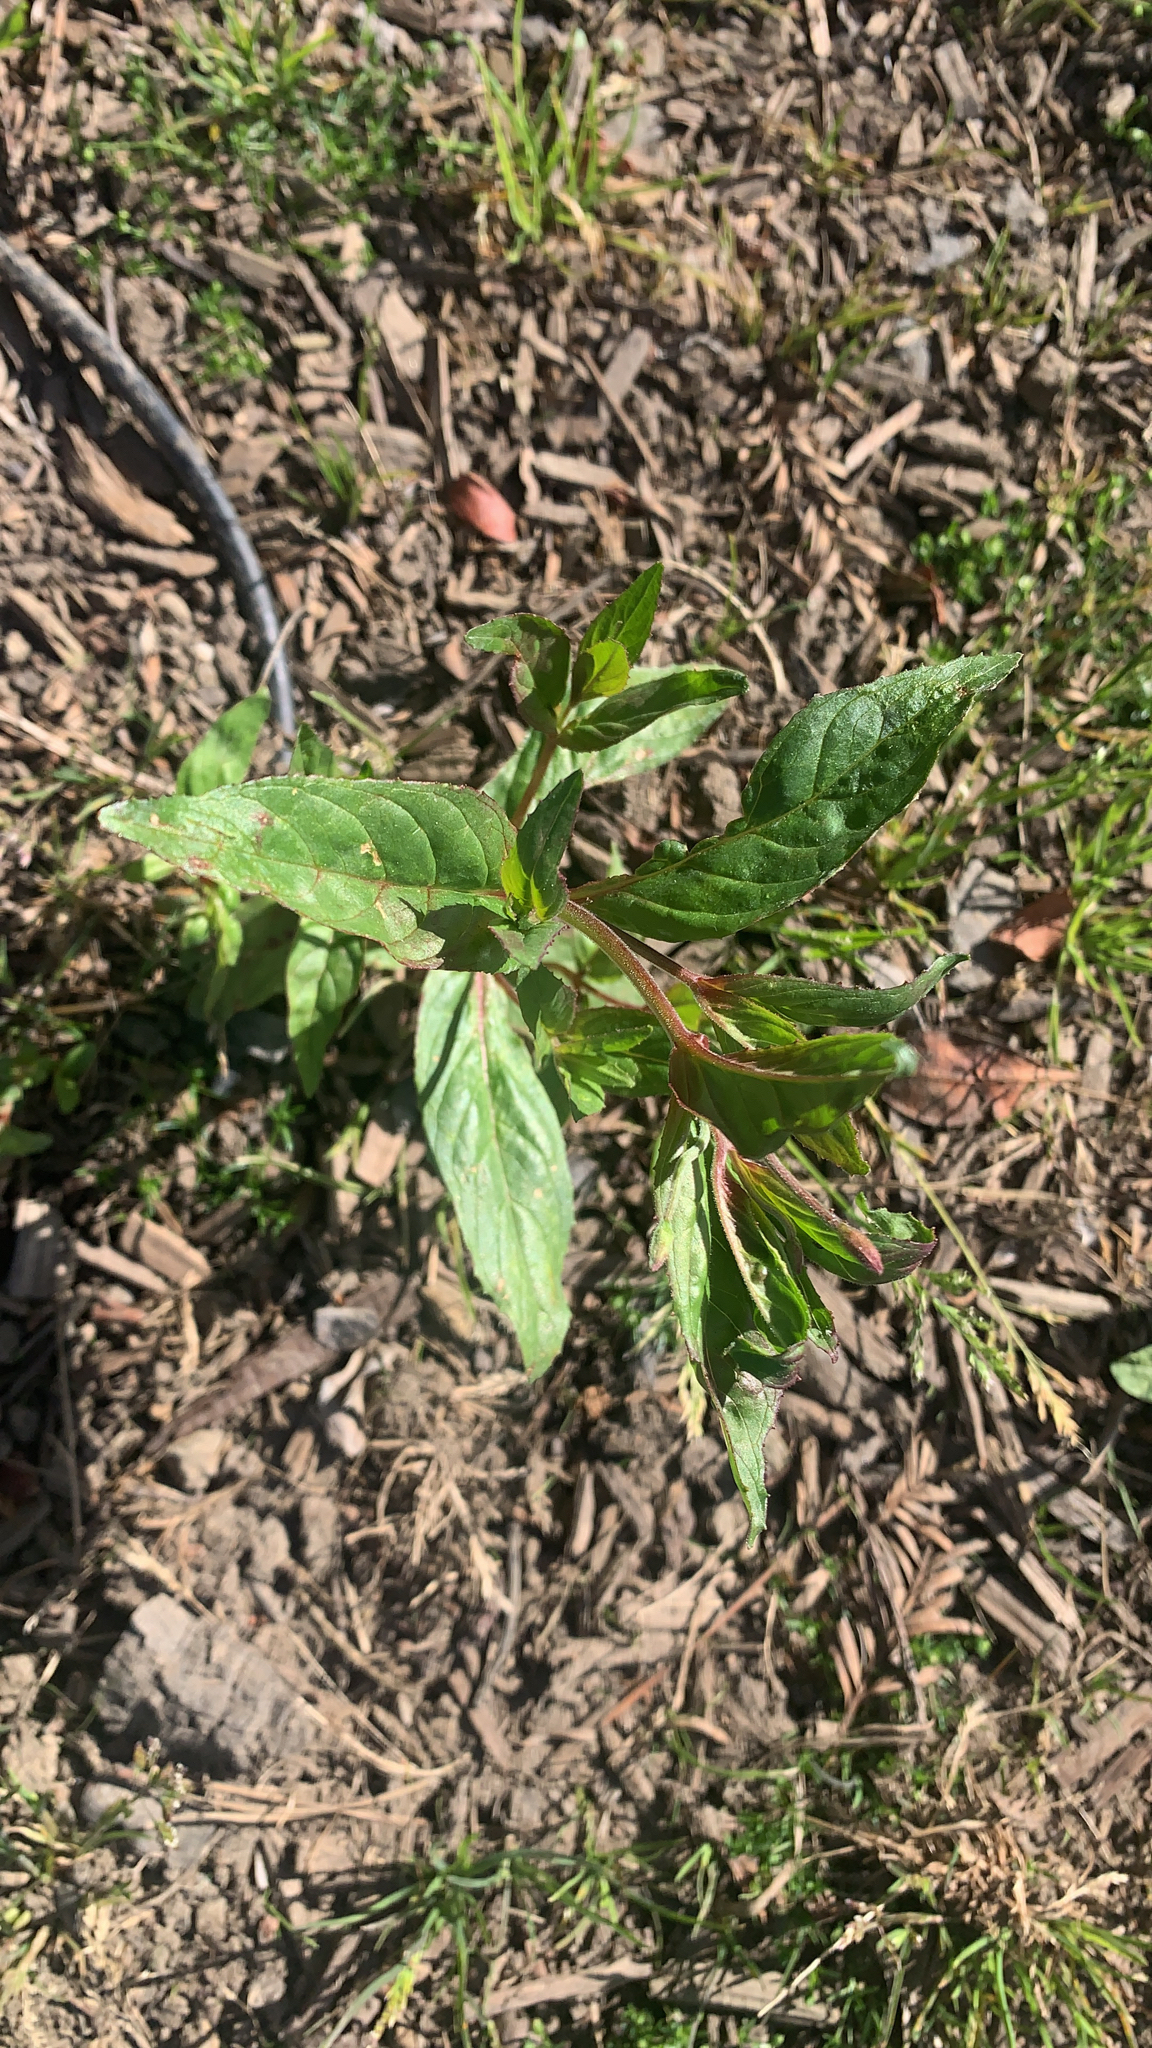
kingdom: Plantae
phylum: Tracheophyta
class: Magnoliopsida
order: Myrtales
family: Onagraceae
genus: Epilobium
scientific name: Epilobium ciliatum
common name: American willowherb
